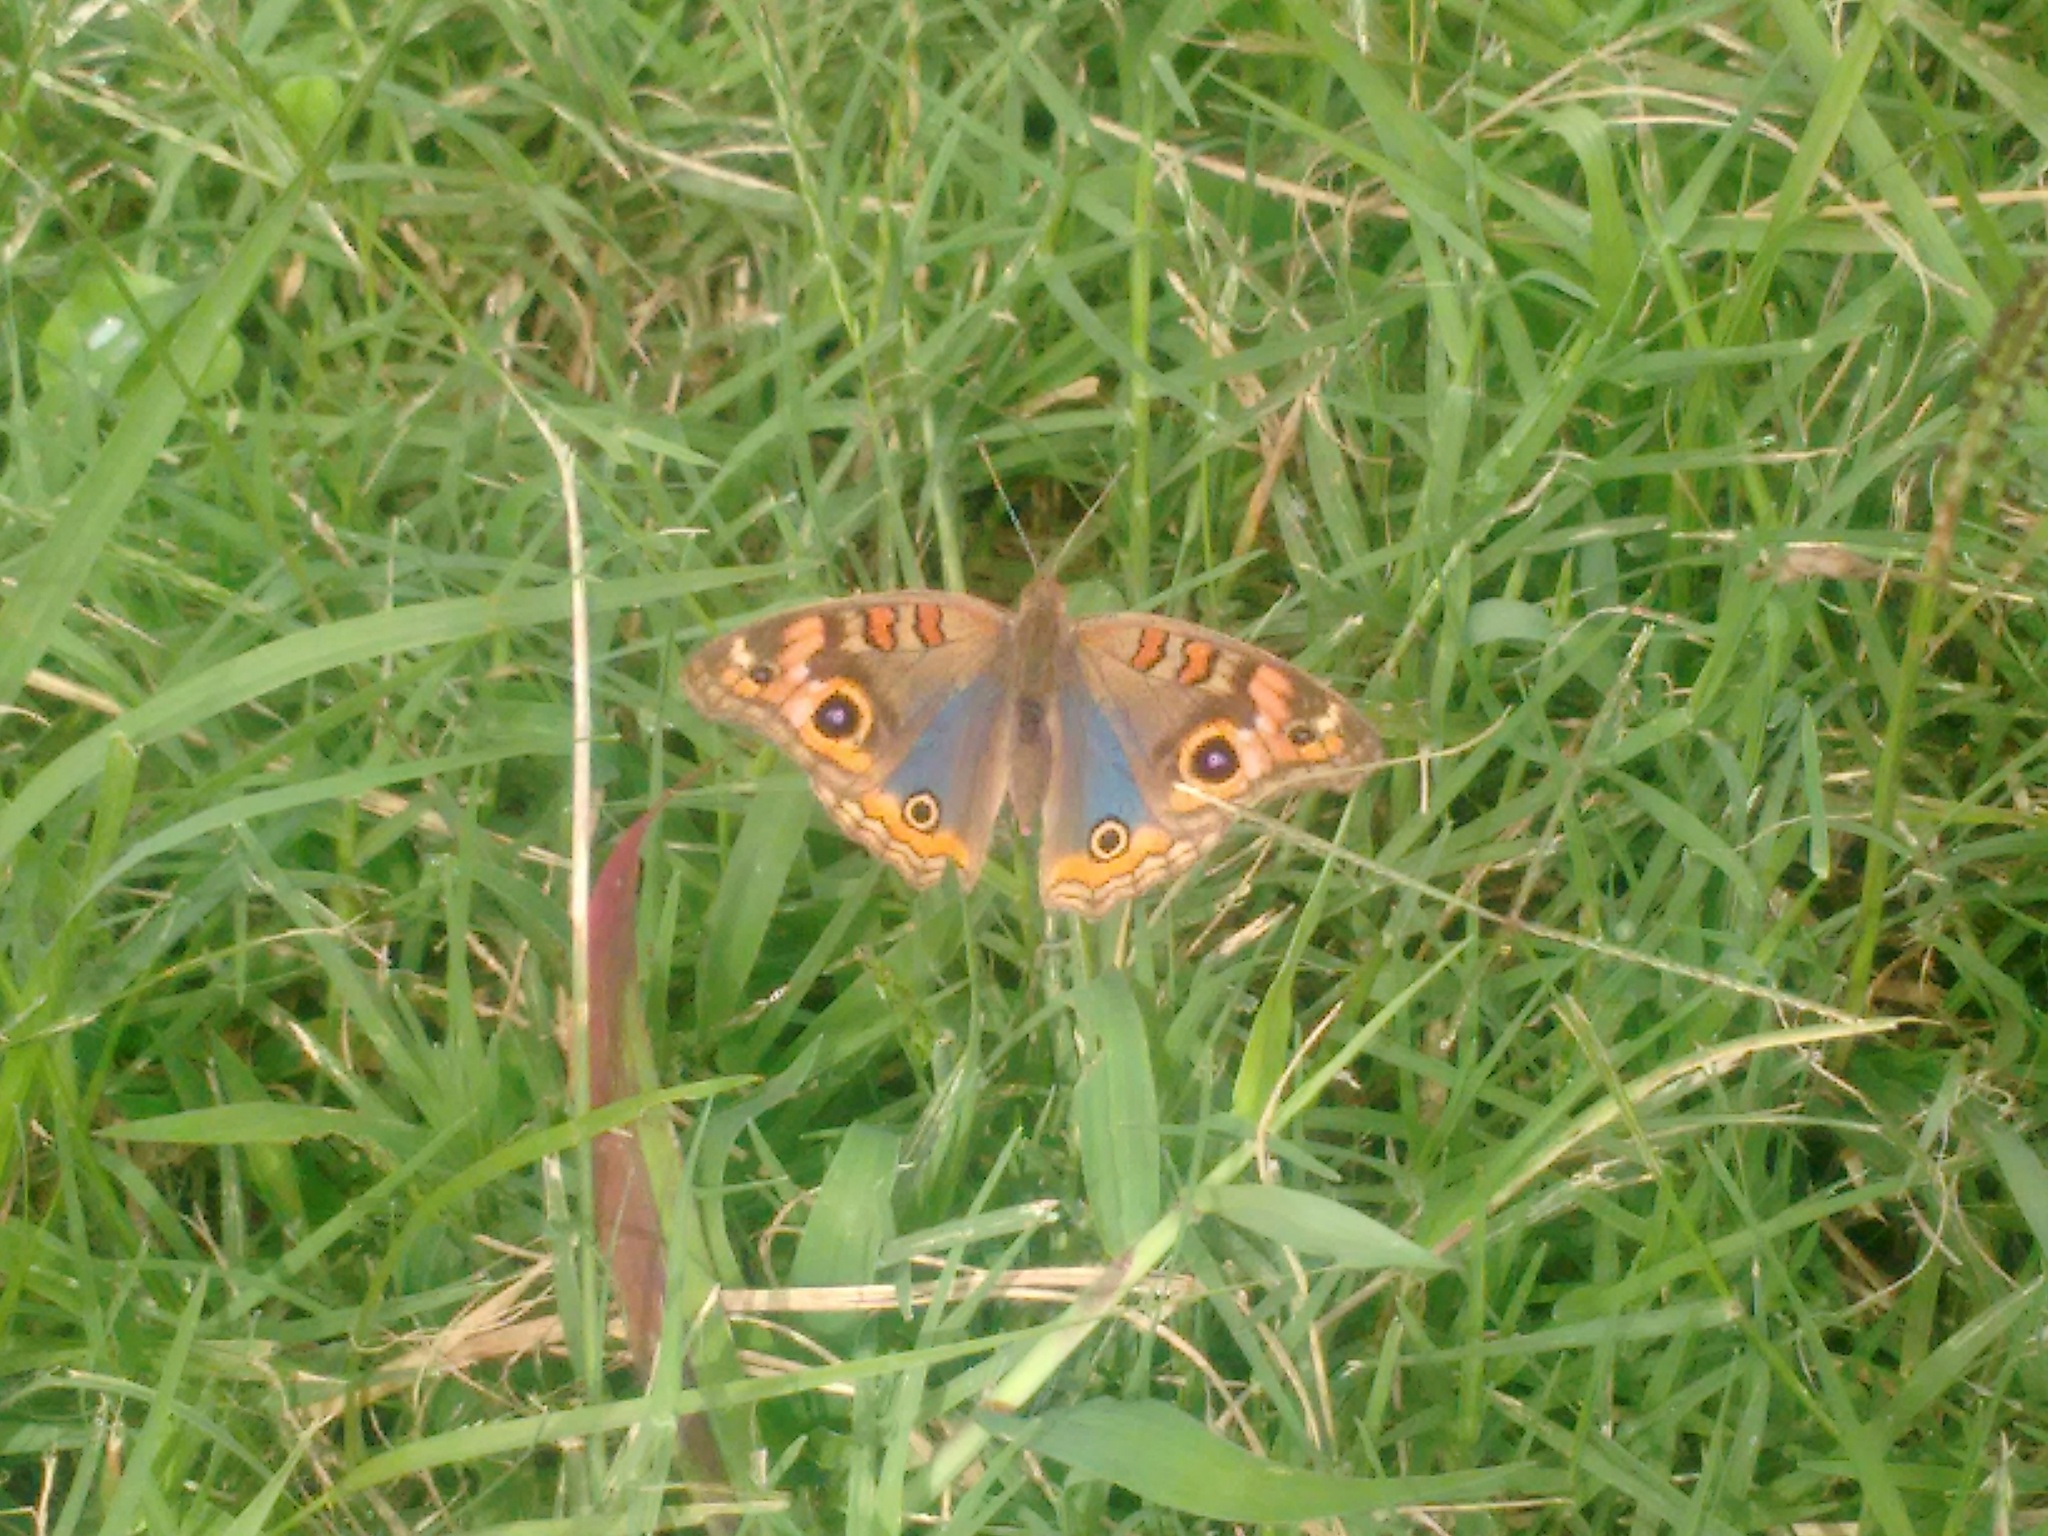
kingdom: Animalia
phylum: Arthropoda
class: Insecta
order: Lepidoptera
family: Nymphalidae
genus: Junonia
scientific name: Junonia lavinia
